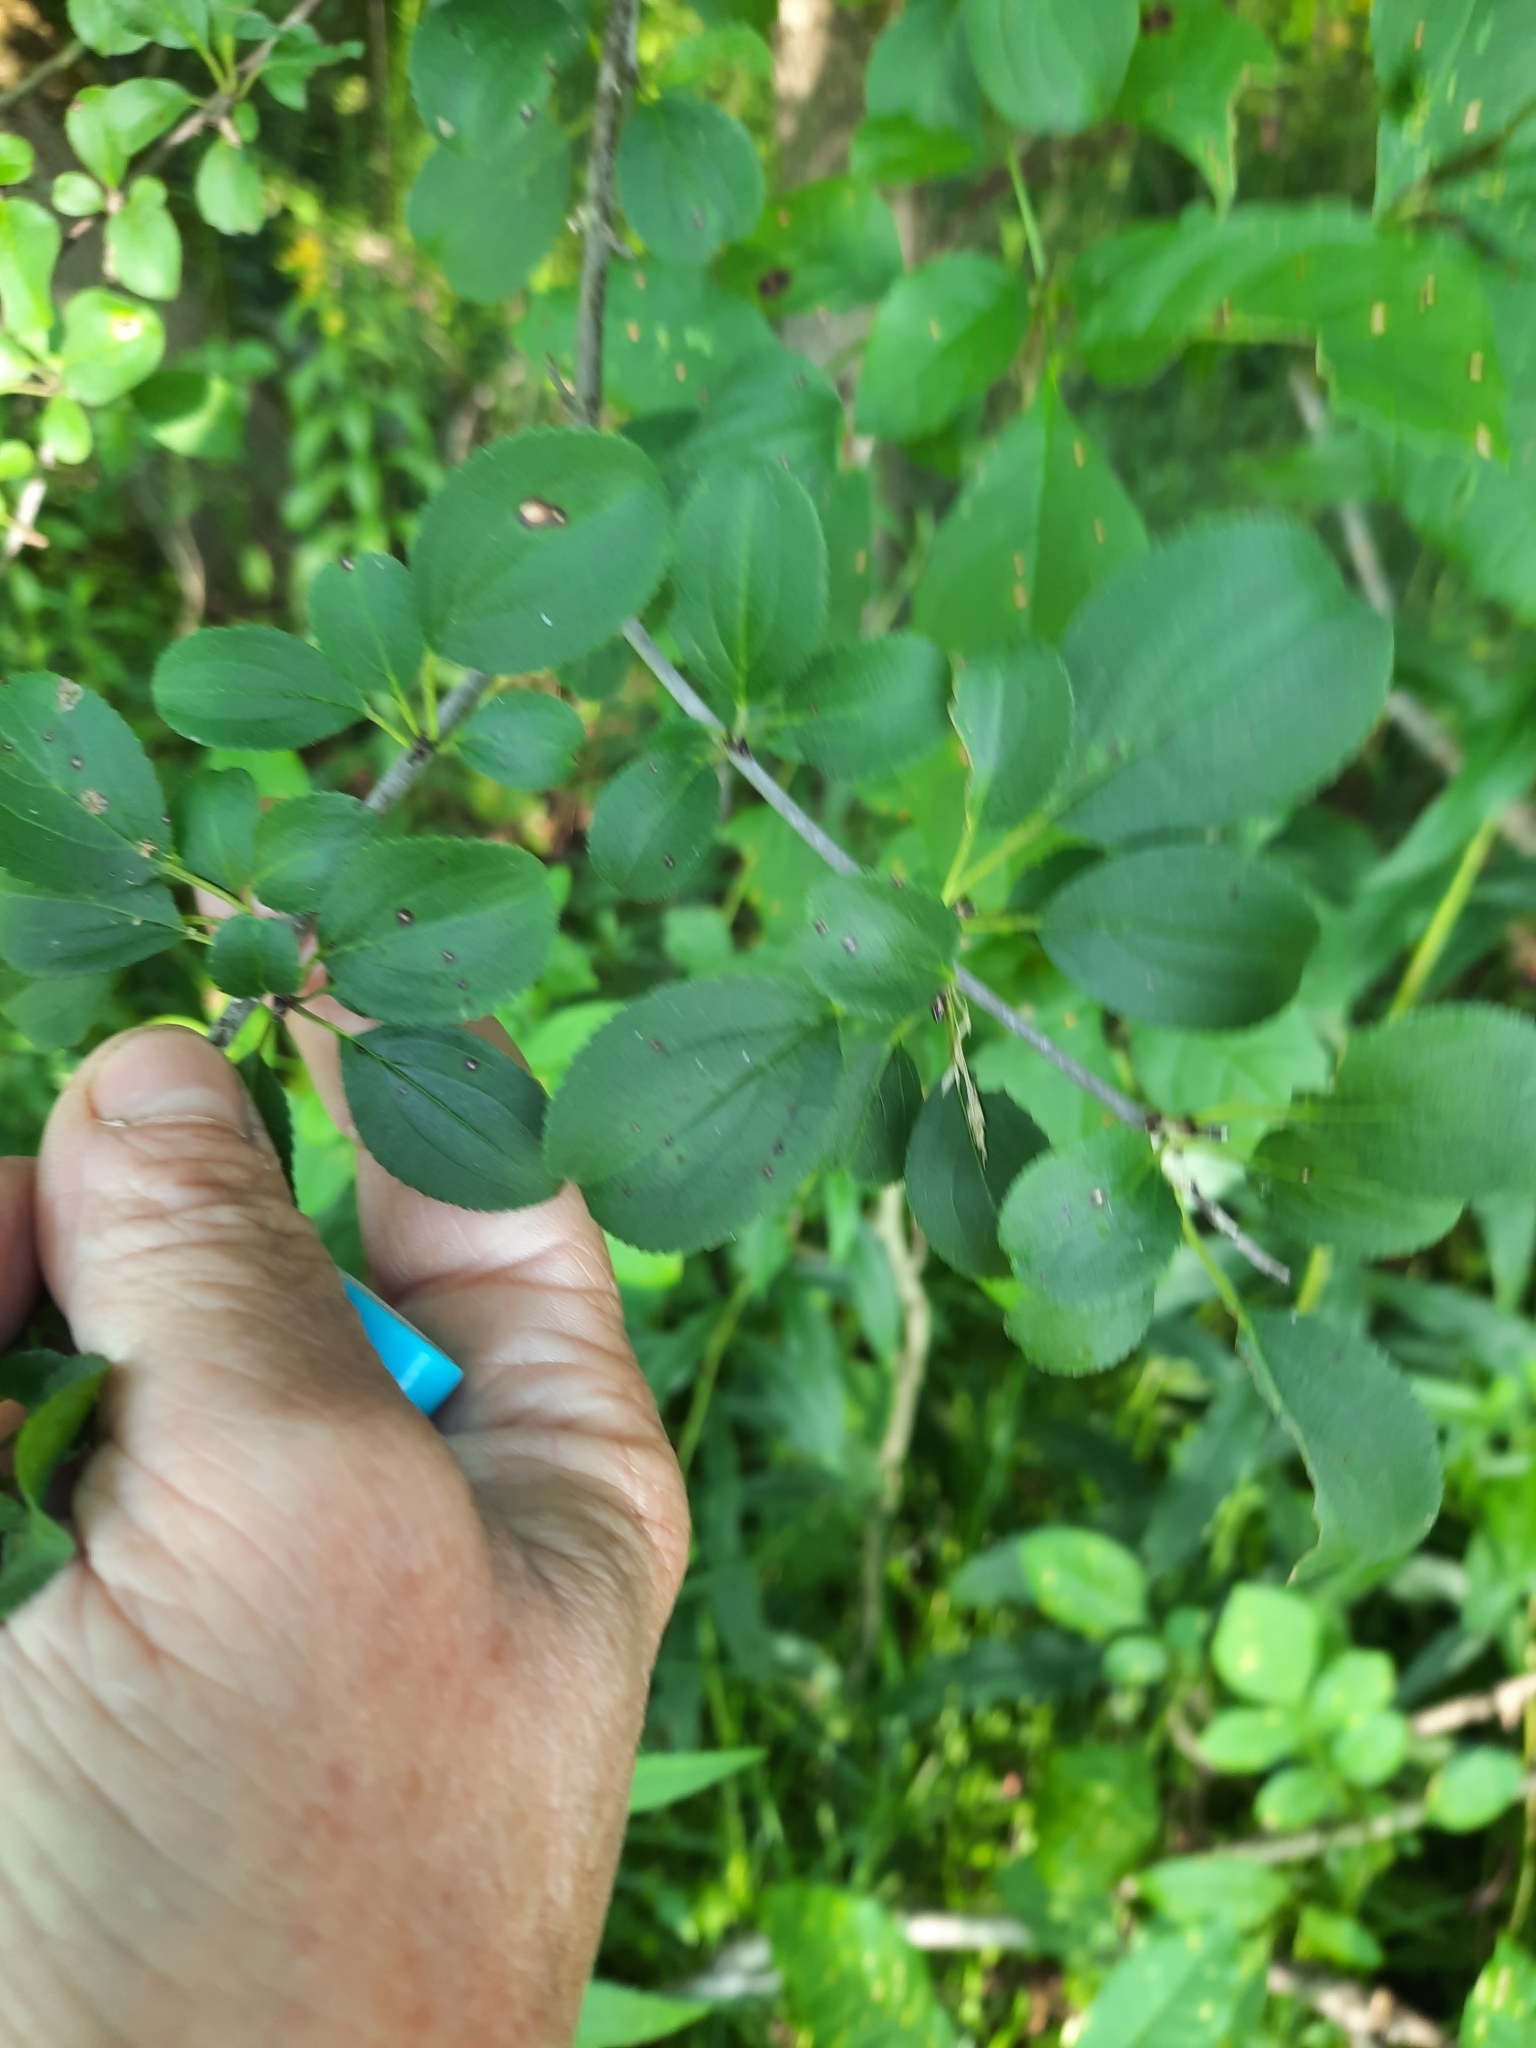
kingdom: Plantae
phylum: Tracheophyta
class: Magnoliopsida
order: Rosales
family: Rhamnaceae
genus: Rhamnus
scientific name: Rhamnus cathartica
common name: Common buckthorn
